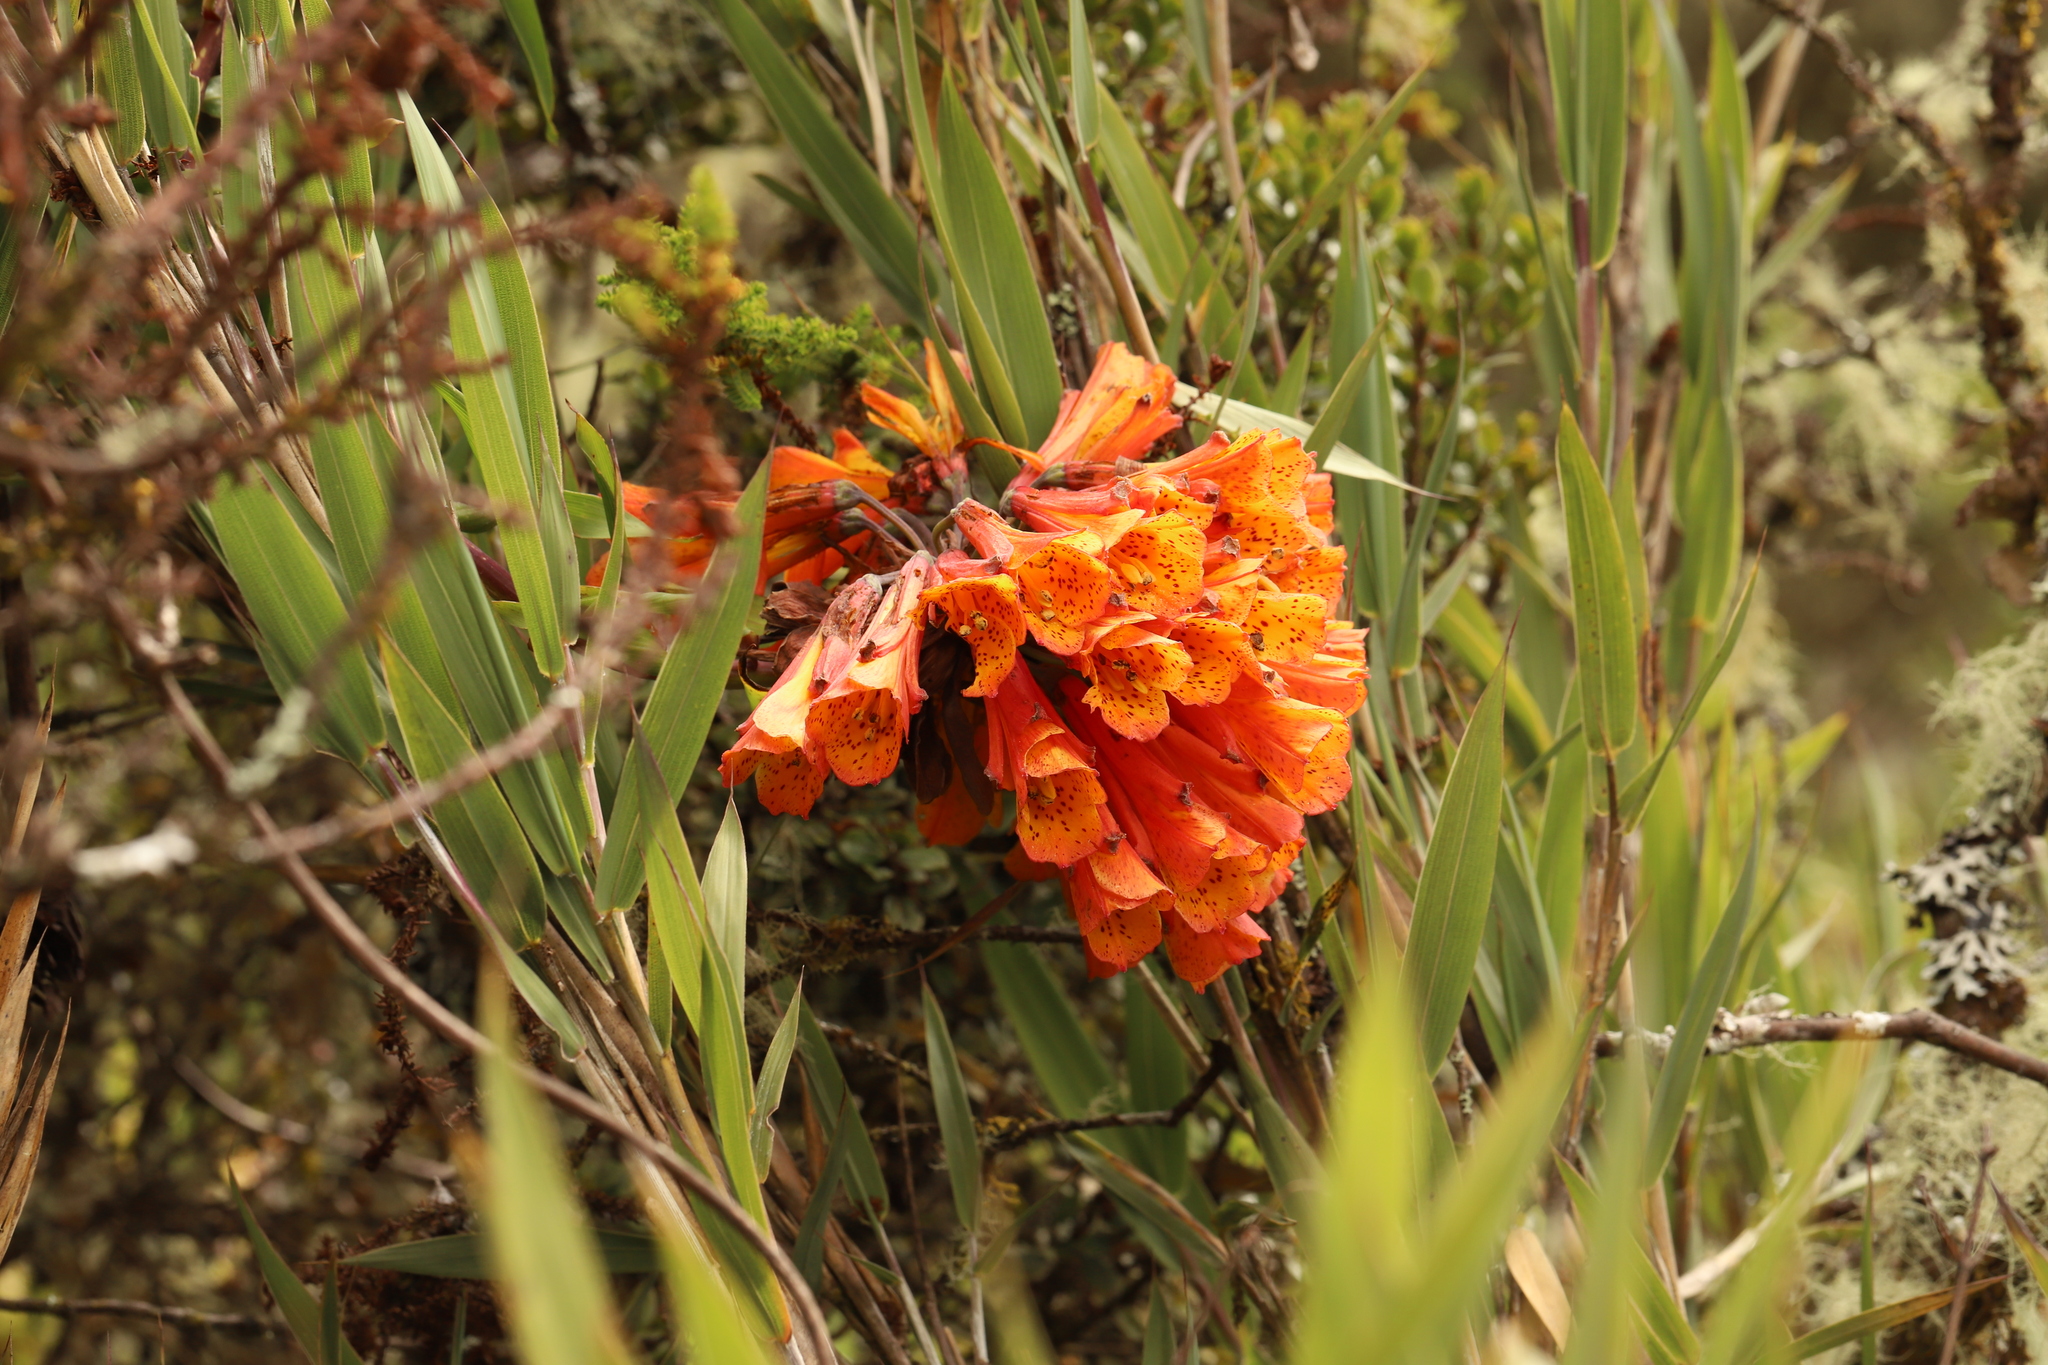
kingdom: Plantae
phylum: Tracheophyta
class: Liliopsida
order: Liliales
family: Alstroemeriaceae
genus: Bomarea
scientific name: Bomarea multiflora
